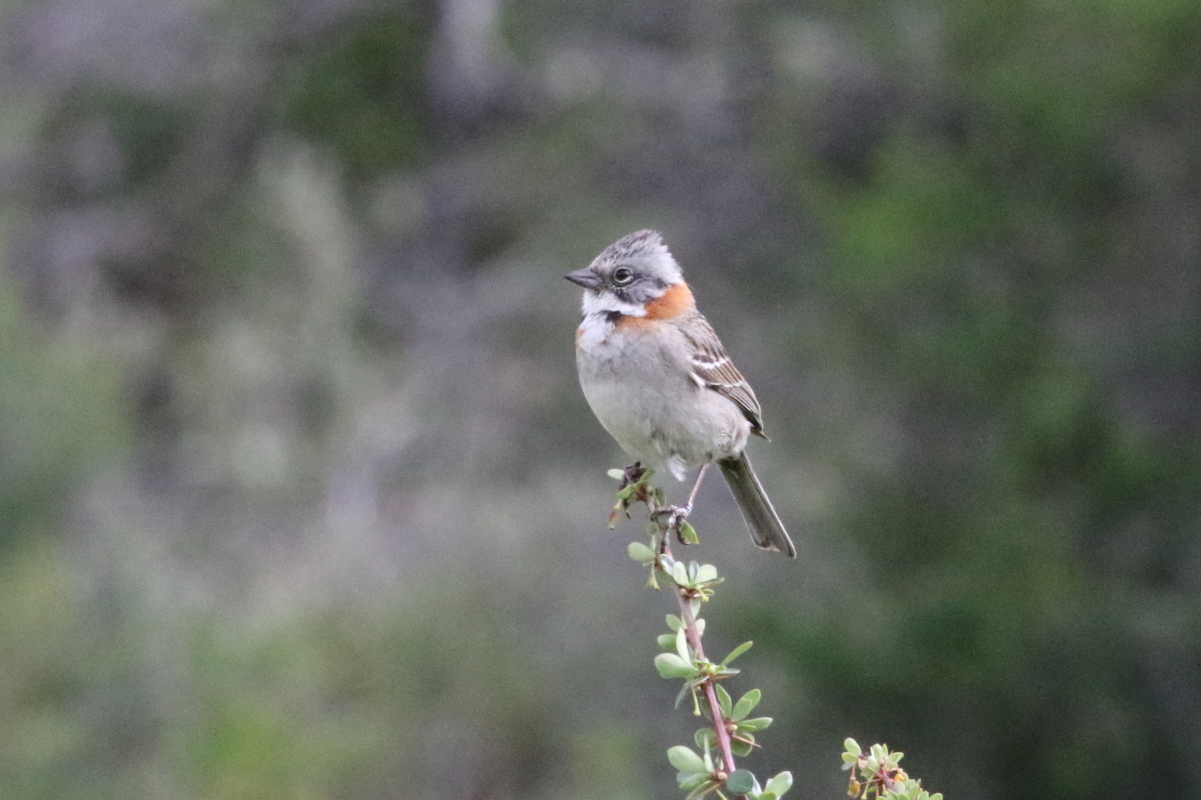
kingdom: Animalia
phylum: Chordata
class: Aves
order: Passeriformes
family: Passerellidae
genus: Zonotrichia
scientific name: Zonotrichia capensis
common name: Rufous-collared sparrow
